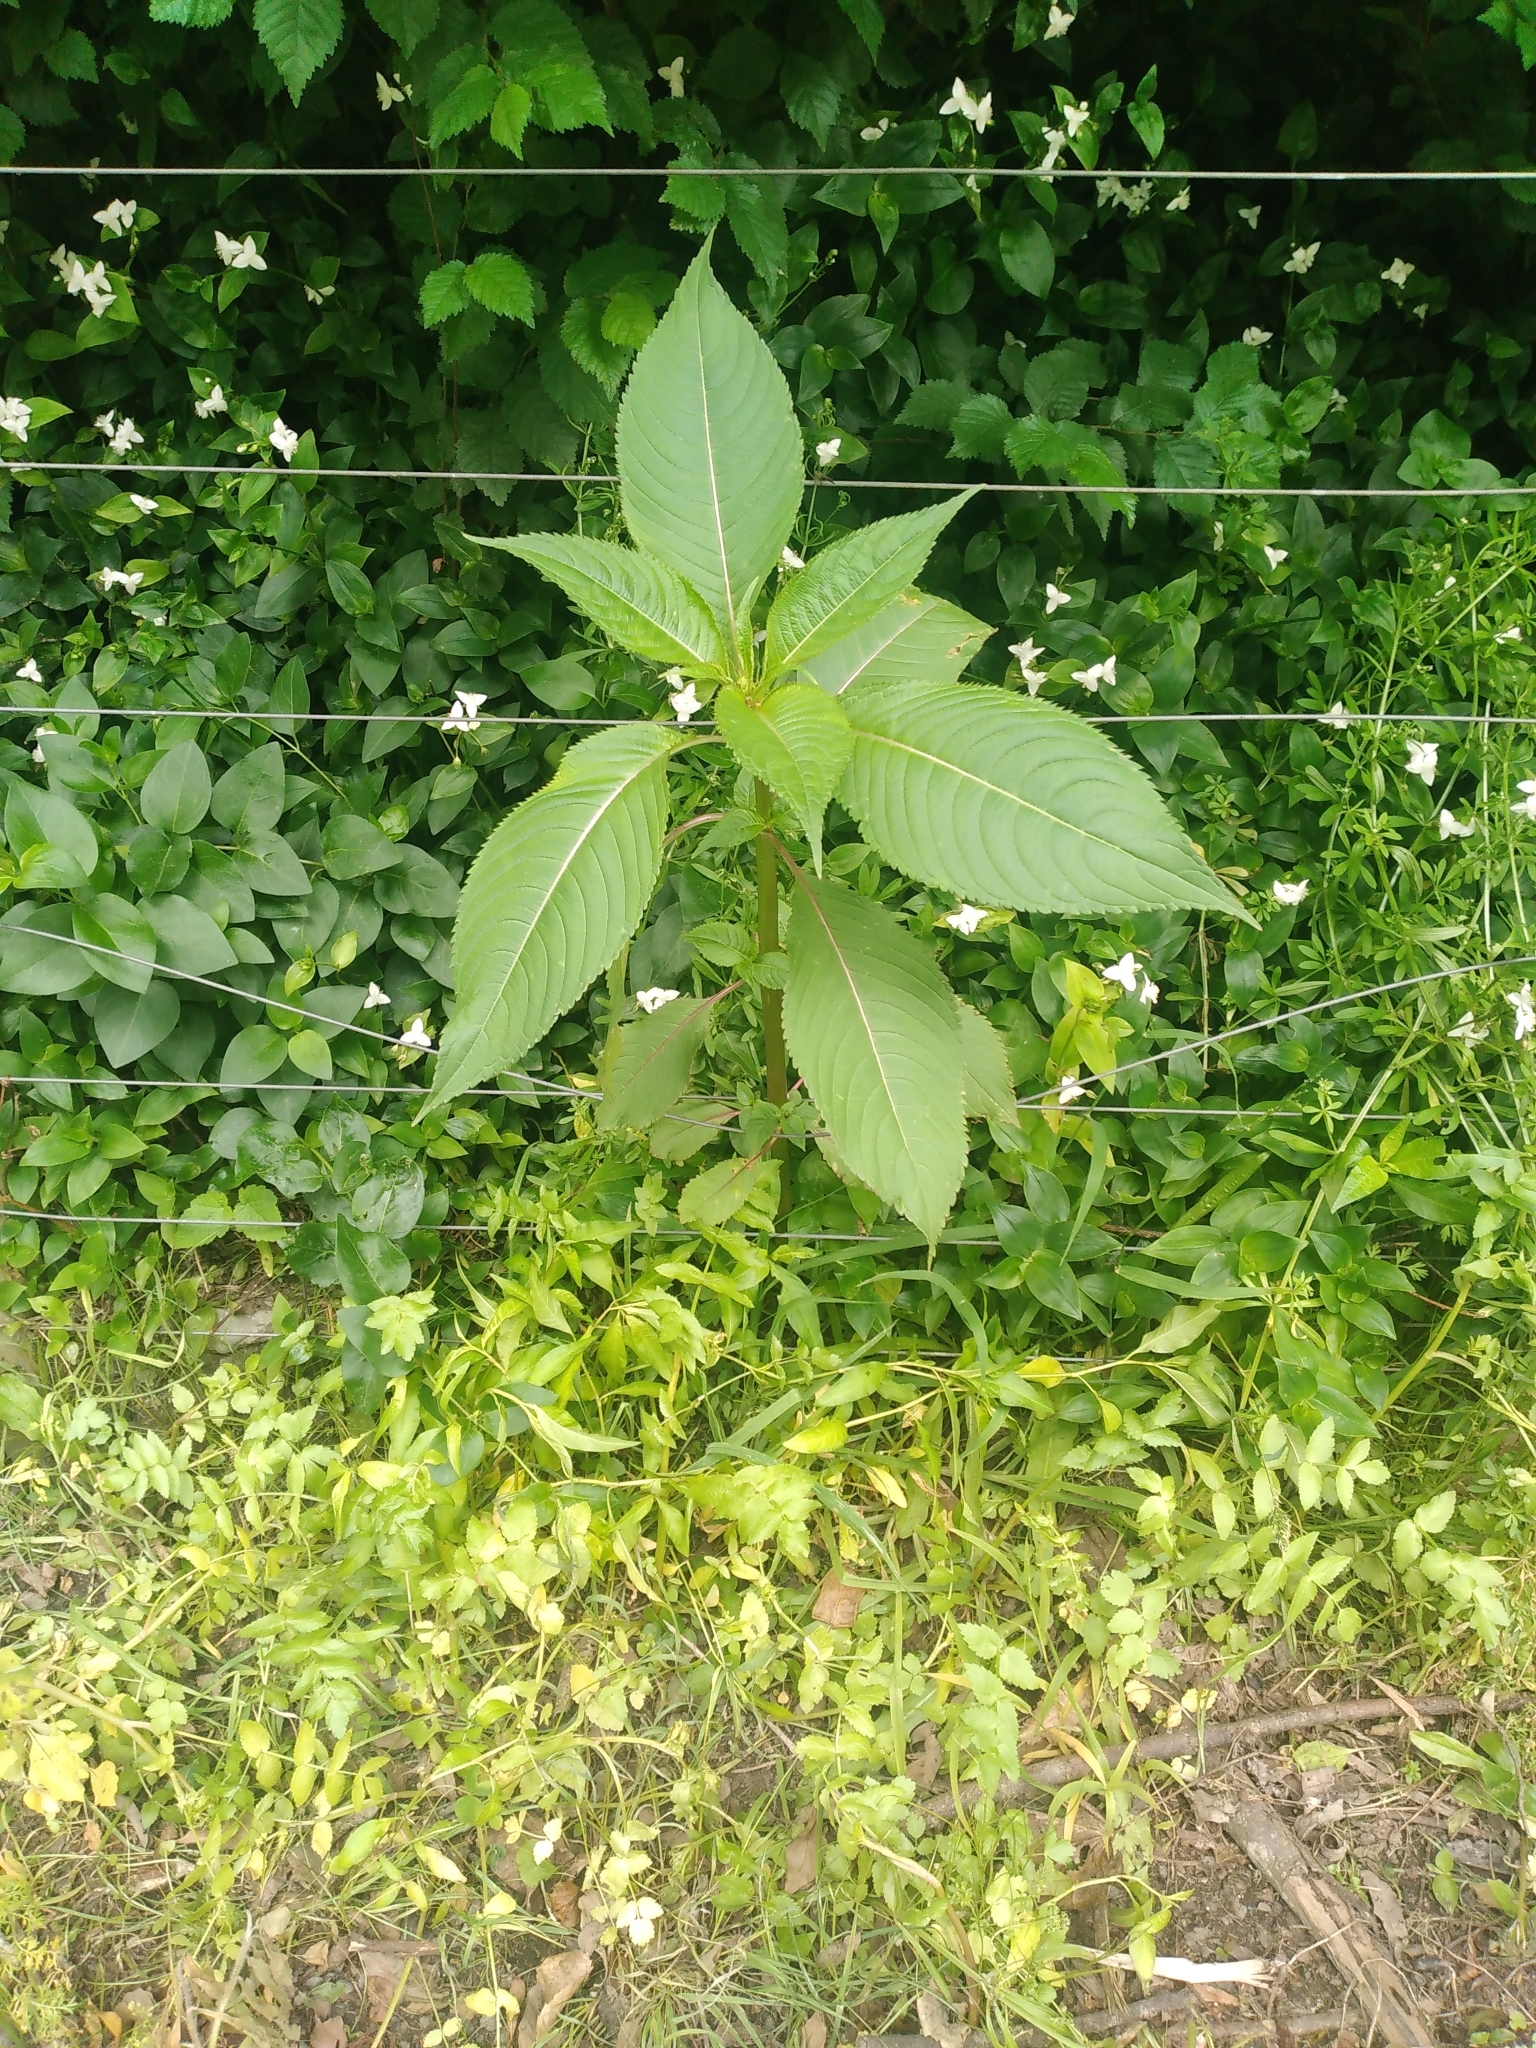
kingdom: Plantae
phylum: Tracheophyta
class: Magnoliopsida
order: Ericales
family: Balsaminaceae
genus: Impatiens
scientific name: Impatiens glandulifera
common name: Himalayan balsam
